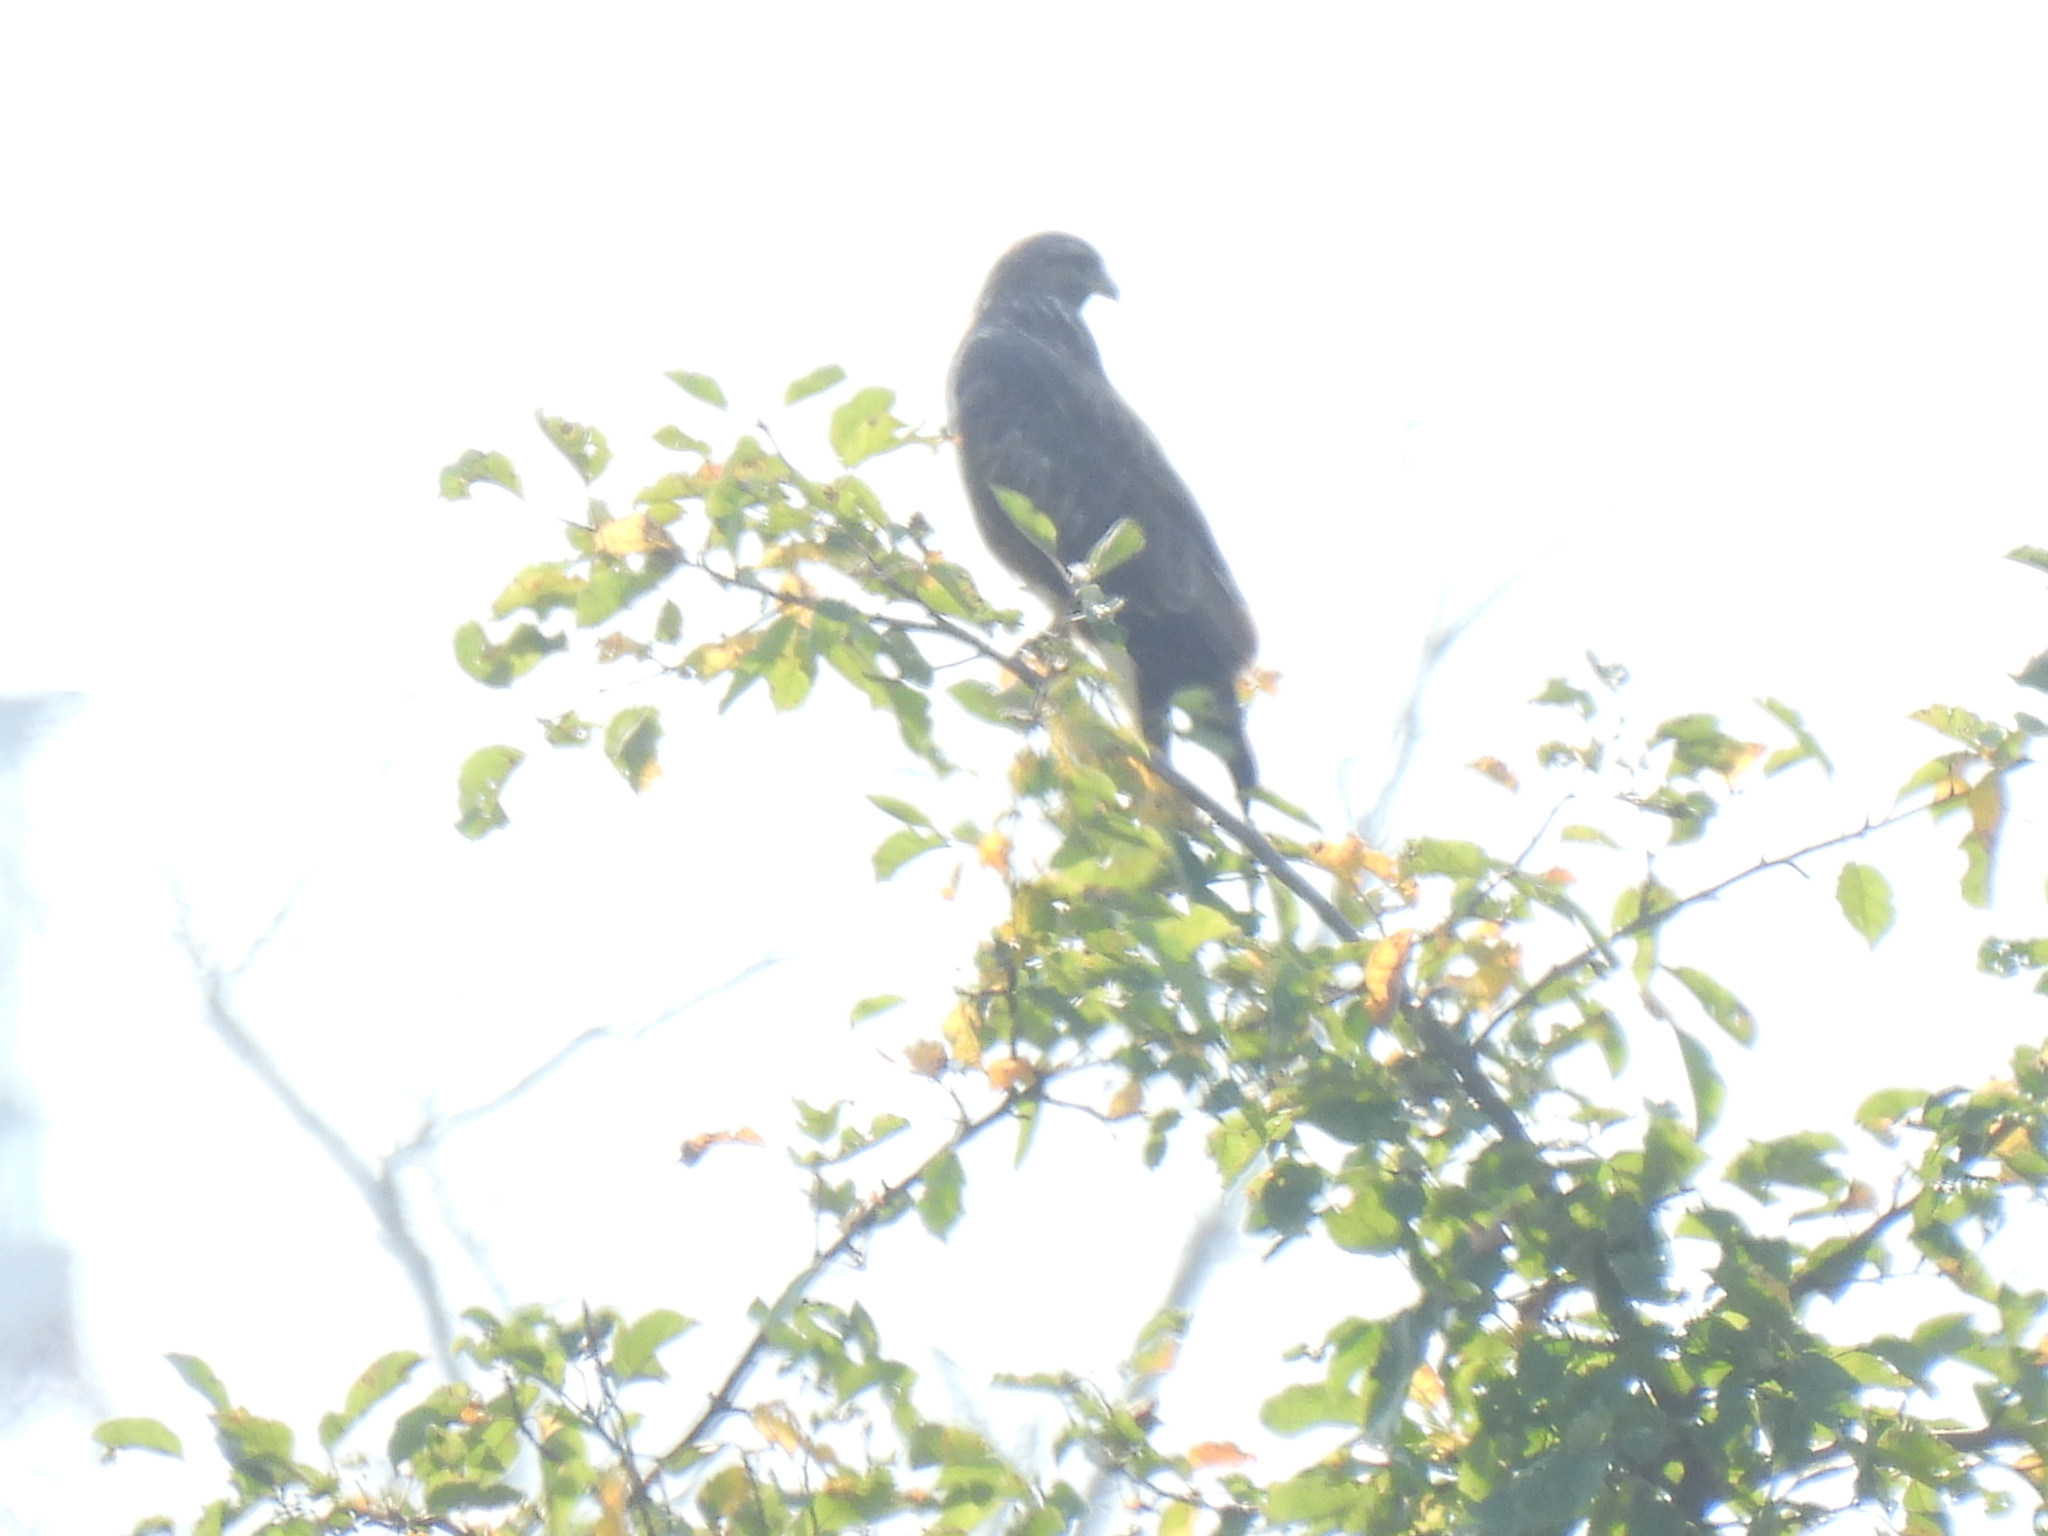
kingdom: Animalia
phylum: Chordata
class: Aves
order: Accipitriformes
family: Accipitridae
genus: Buteo
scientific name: Buteo buteo
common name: Common buzzard
